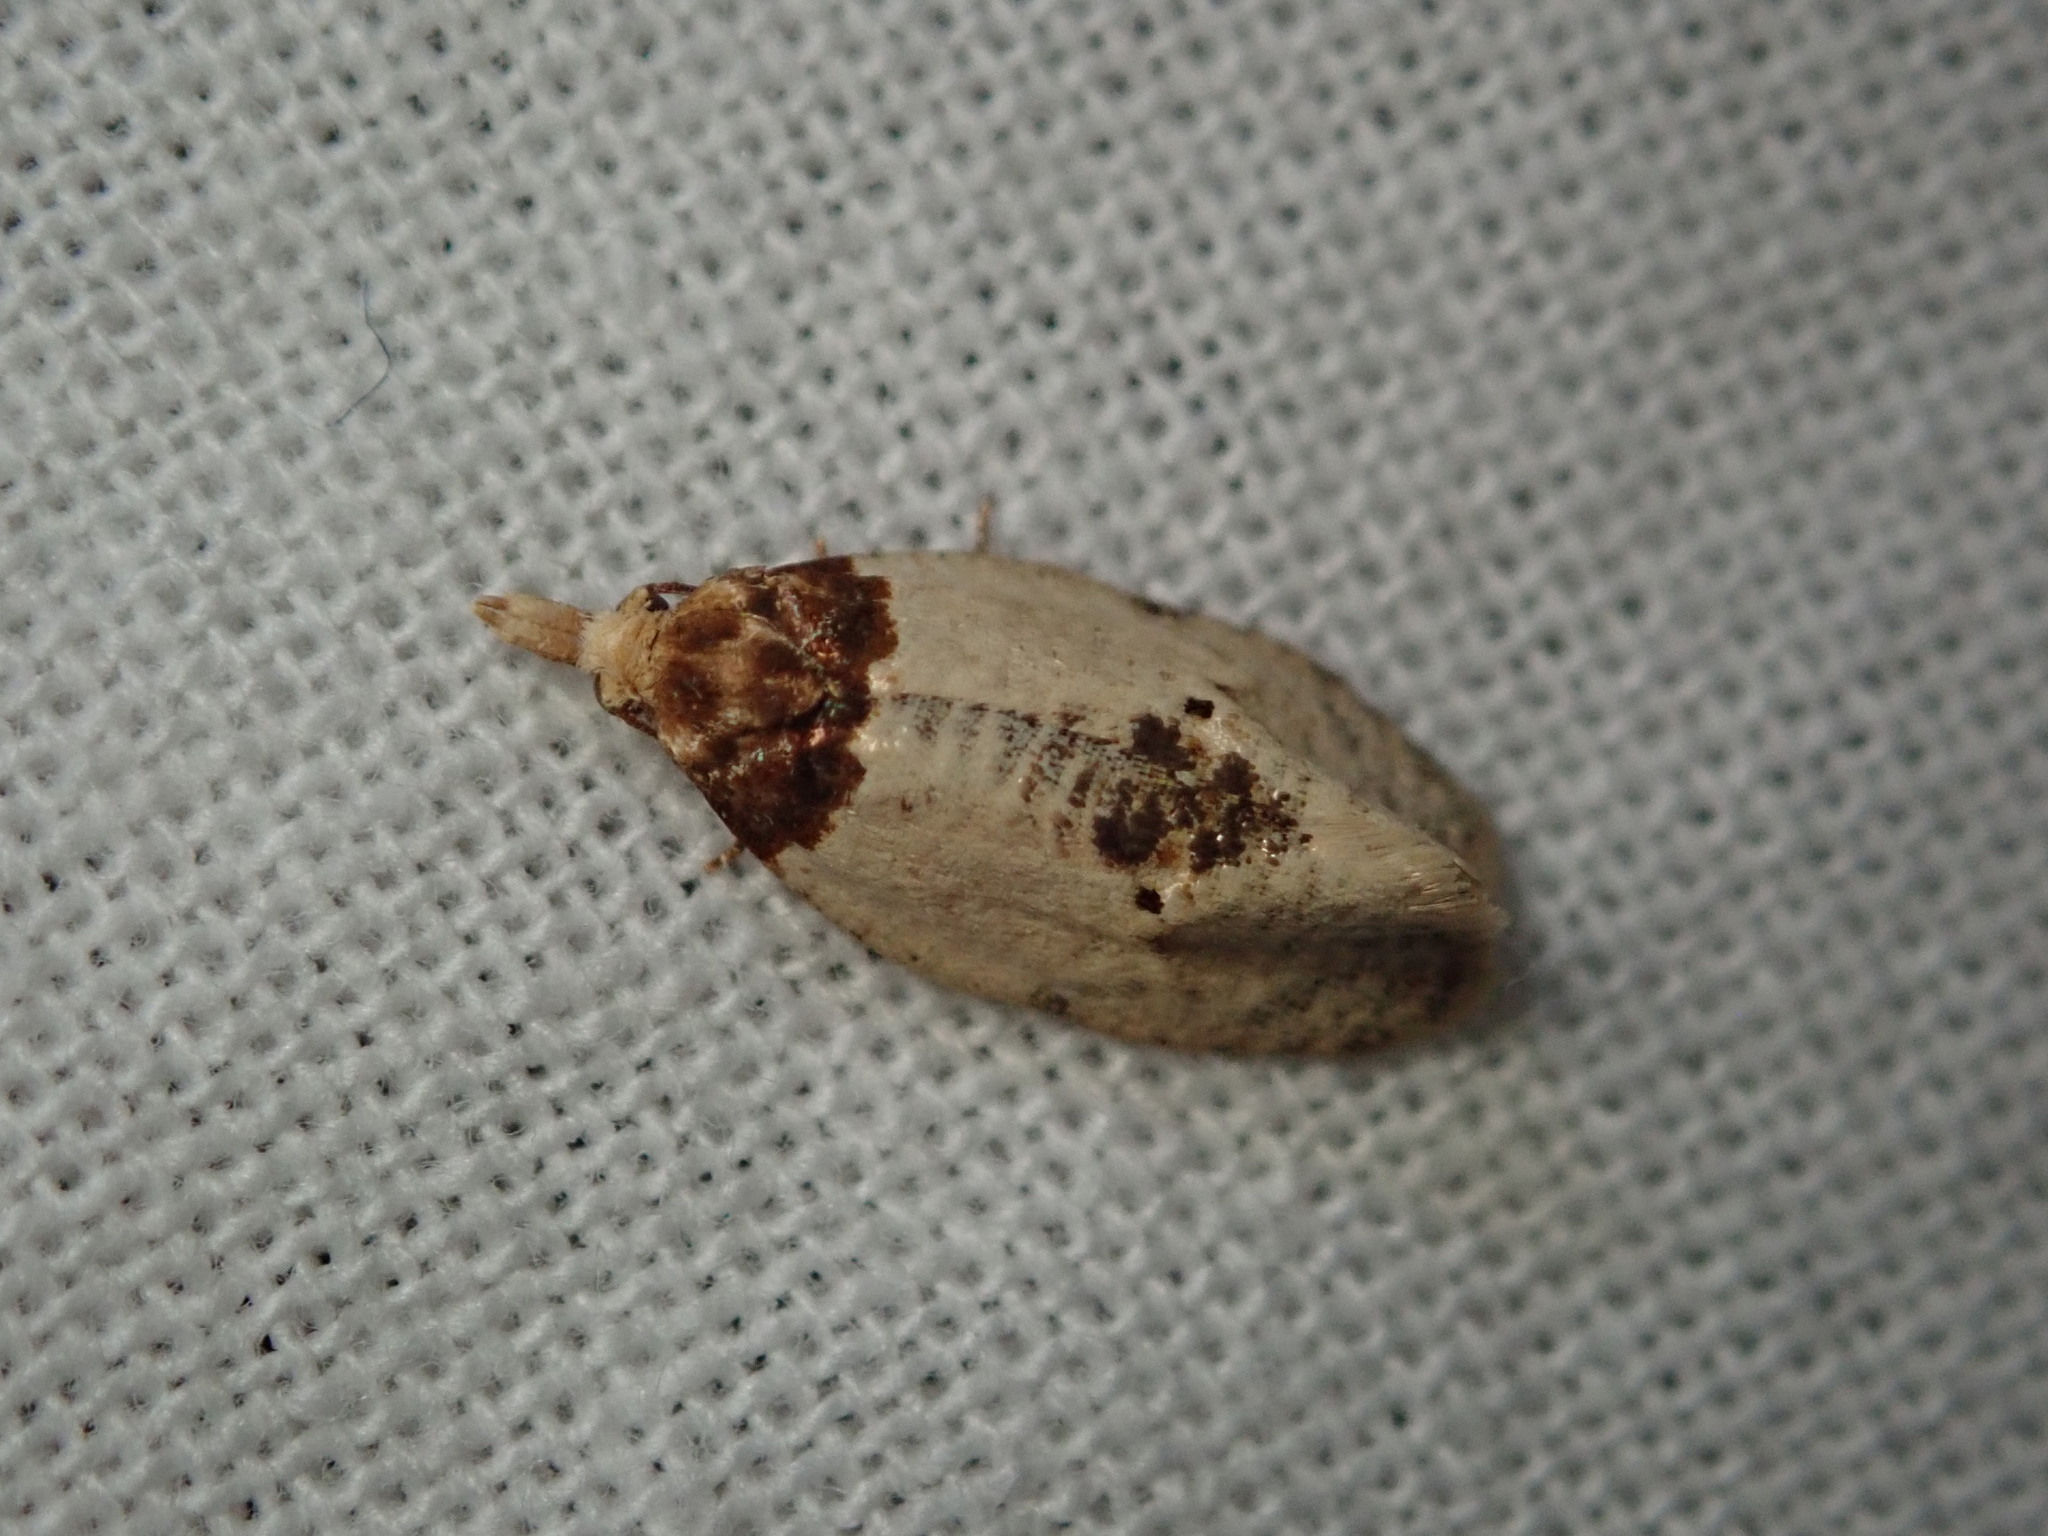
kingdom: Animalia
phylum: Arthropoda
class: Insecta
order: Lepidoptera
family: Tortricidae
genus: Henricus
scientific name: Henricus umbrabasana
